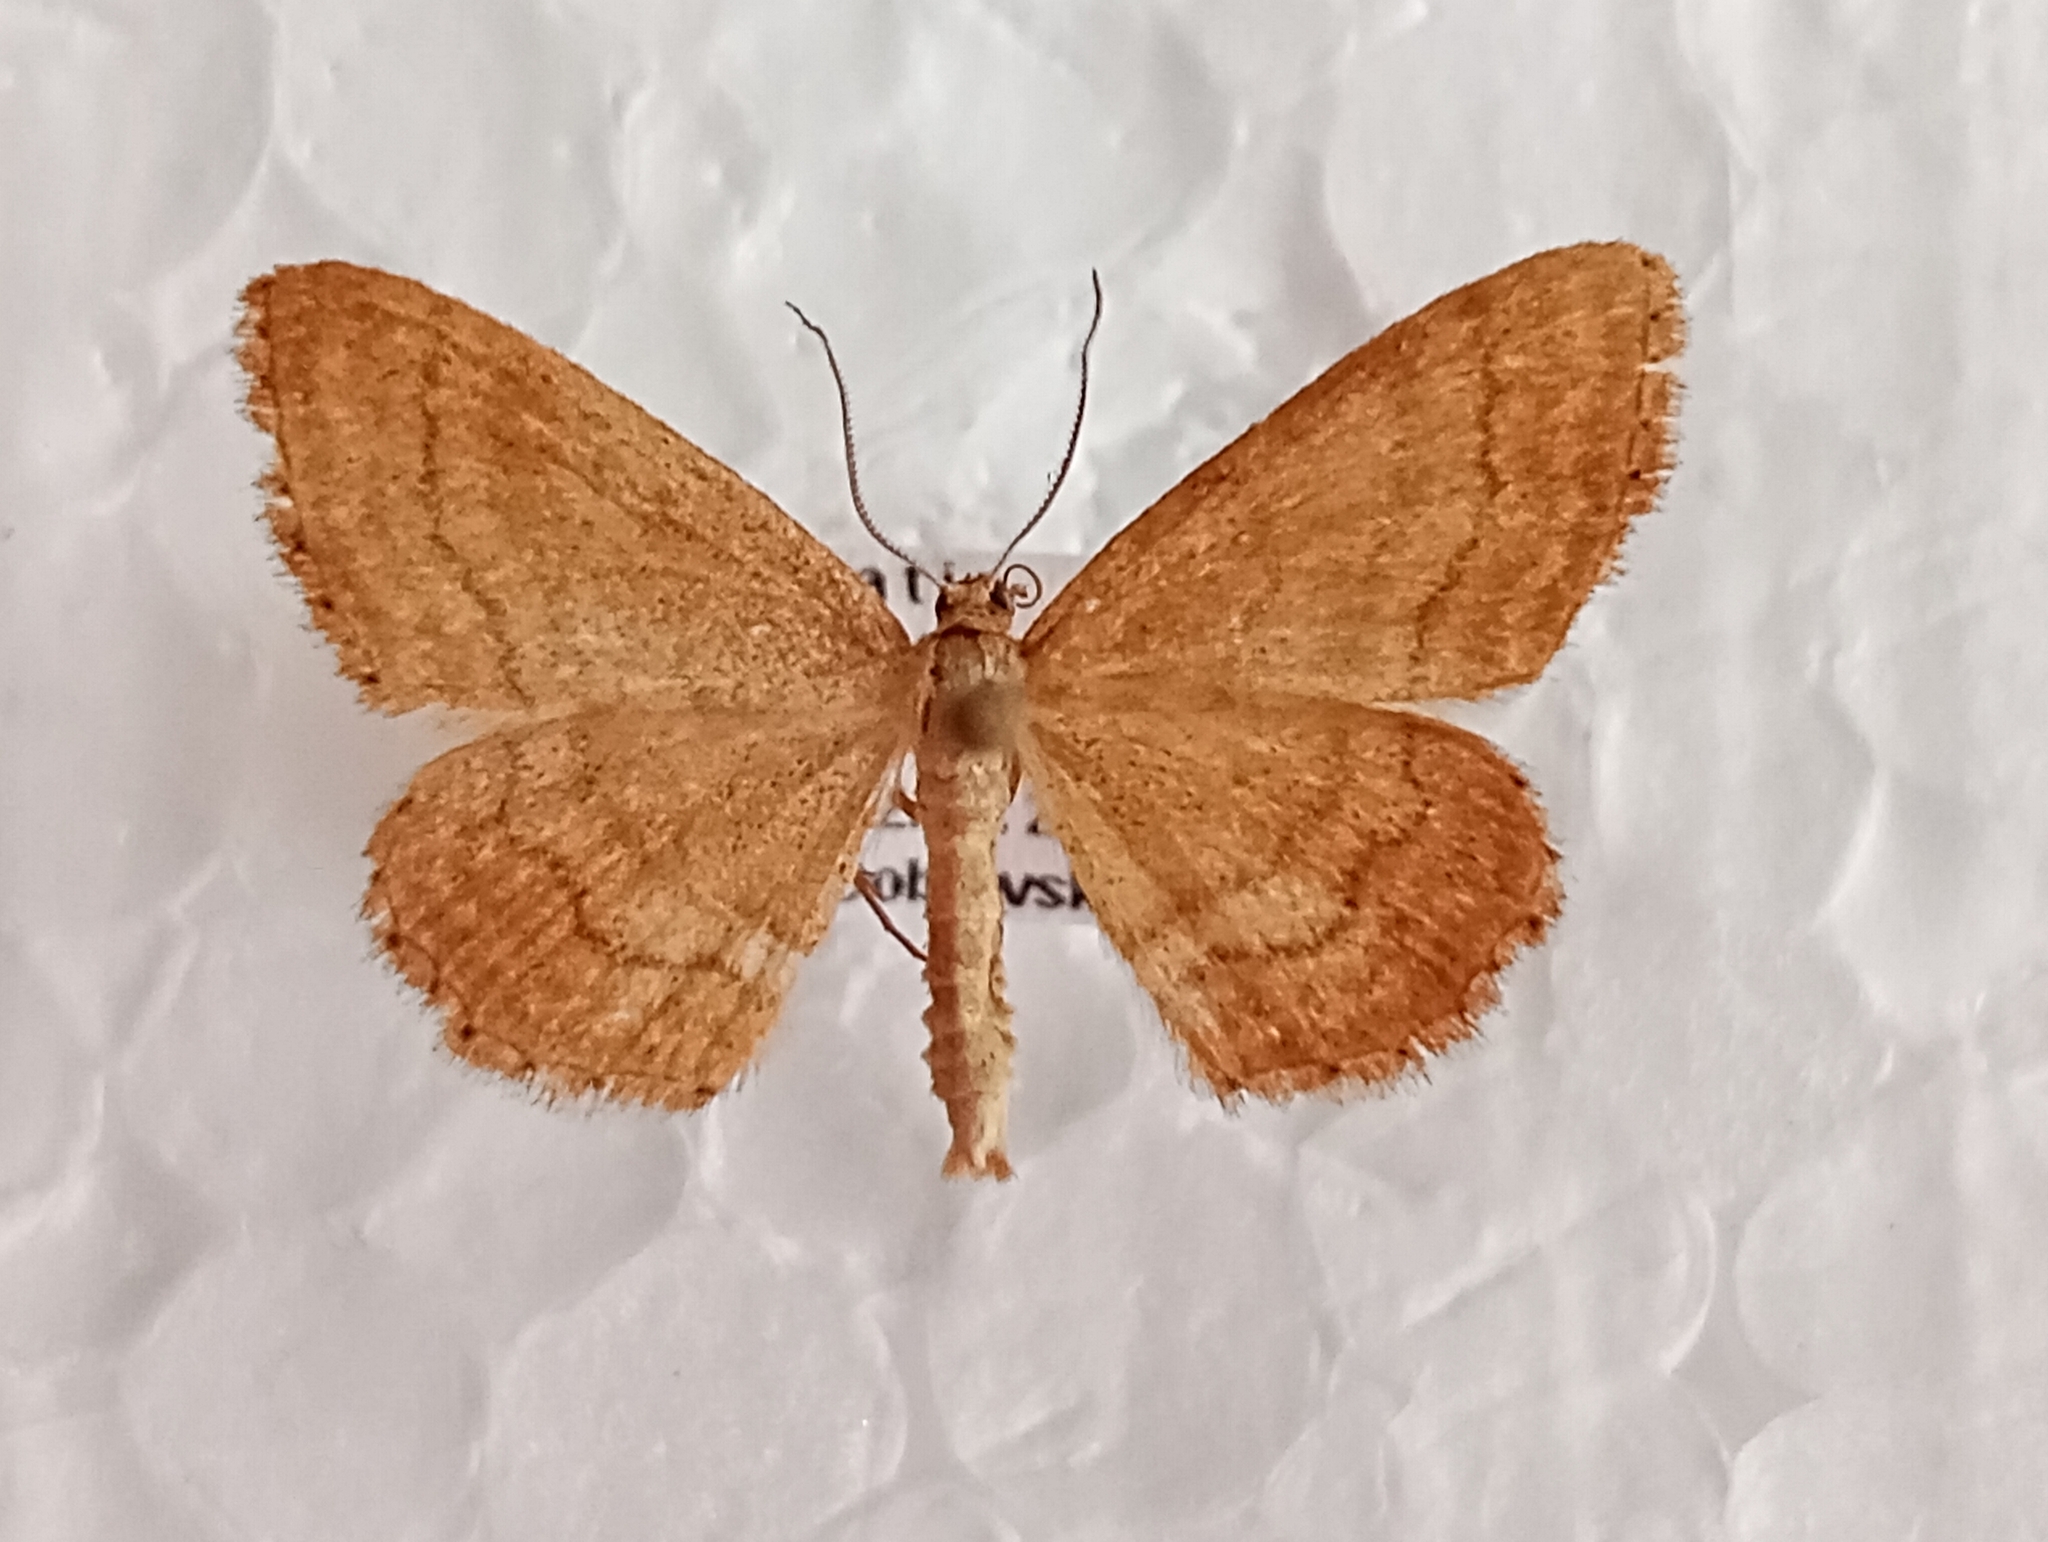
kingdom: Animalia
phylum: Arthropoda
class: Insecta
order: Lepidoptera
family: Geometridae
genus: Idaea
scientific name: Idaea ochrata
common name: Bright wave
